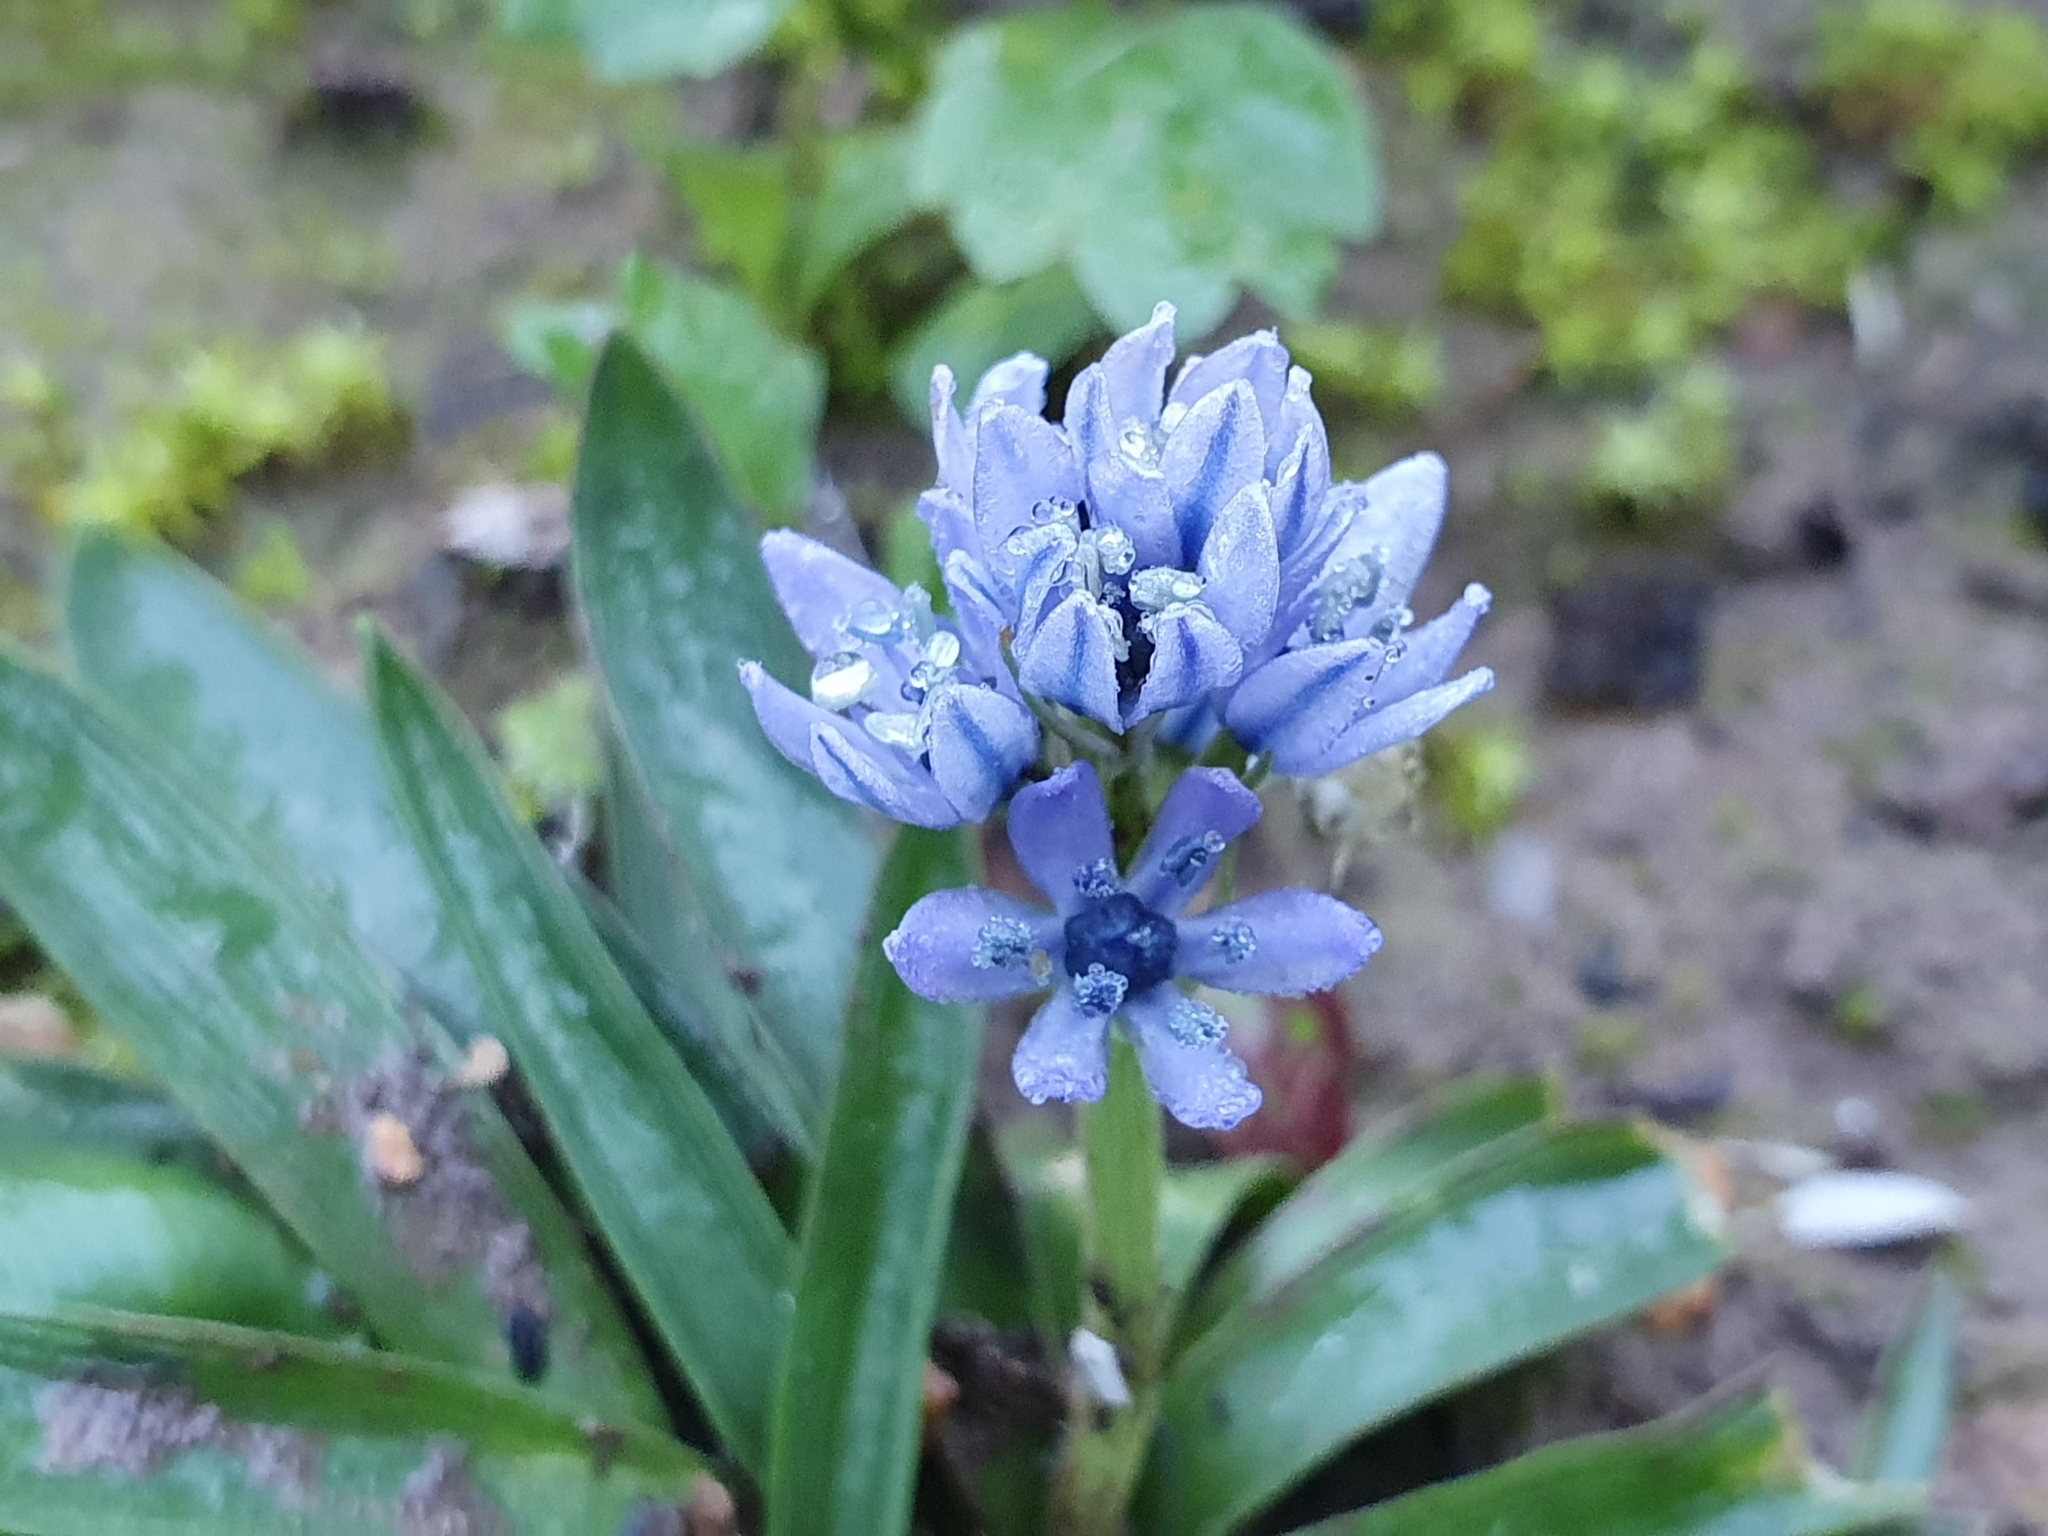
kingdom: Plantae
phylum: Tracheophyta
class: Liliopsida
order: Asparagales
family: Asparagaceae
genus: Hyacinthoides
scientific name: Hyacinthoides lingulata
